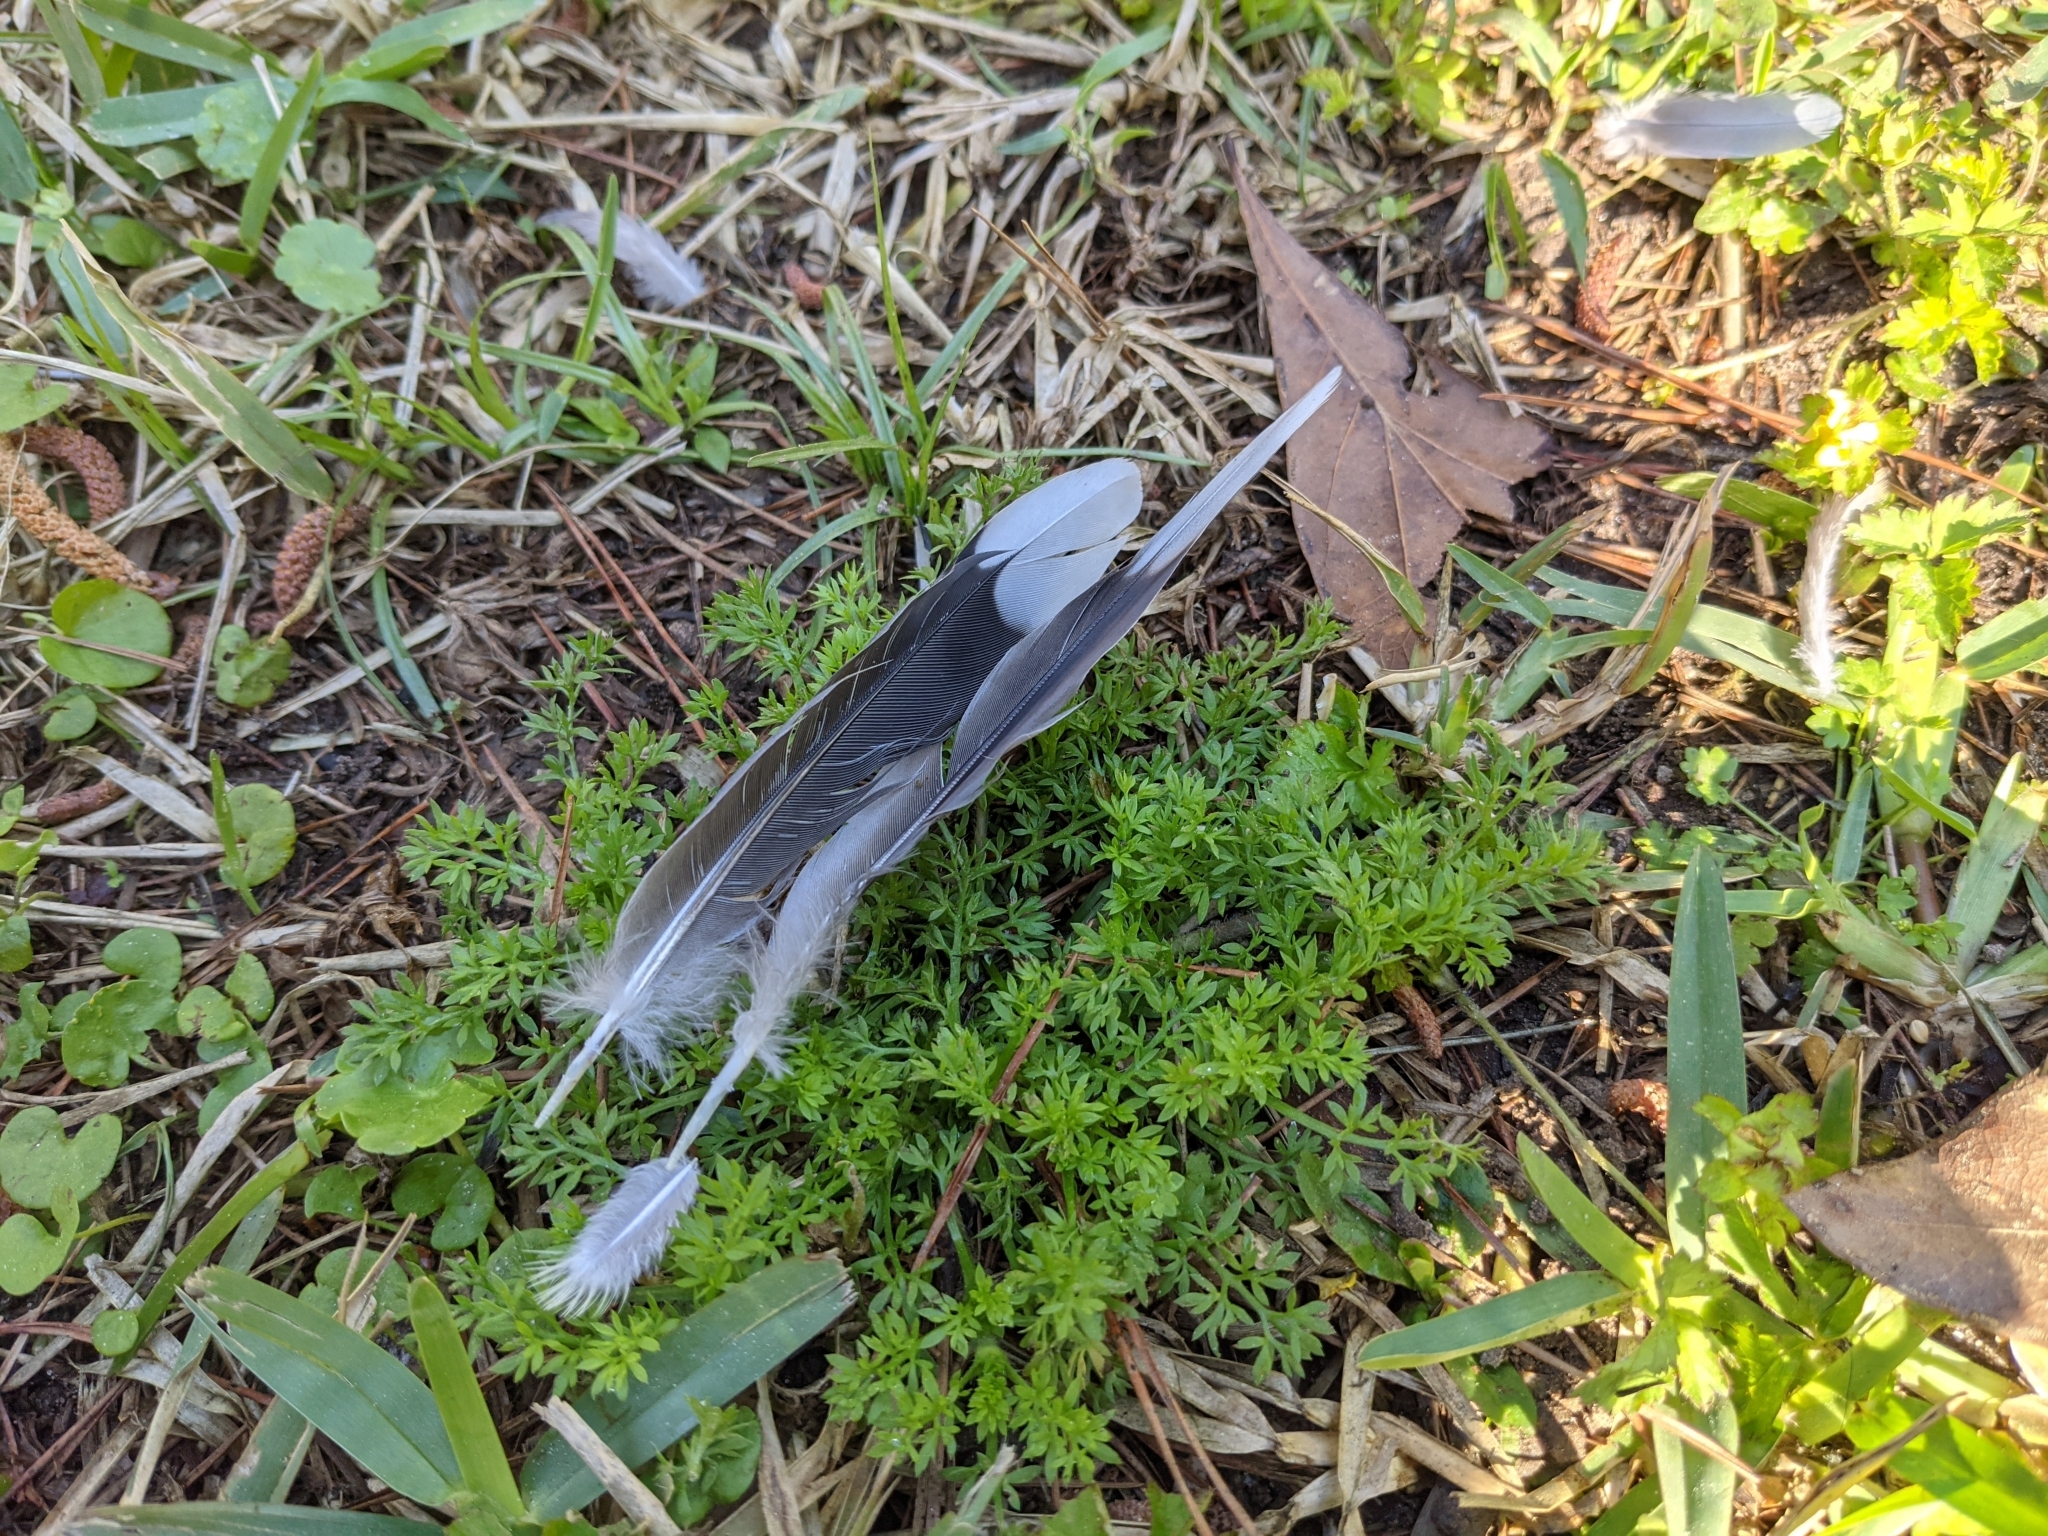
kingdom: Animalia
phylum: Chordata
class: Aves
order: Columbiformes
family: Columbidae
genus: Zenaida
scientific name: Zenaida macroura
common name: Mourning dove
